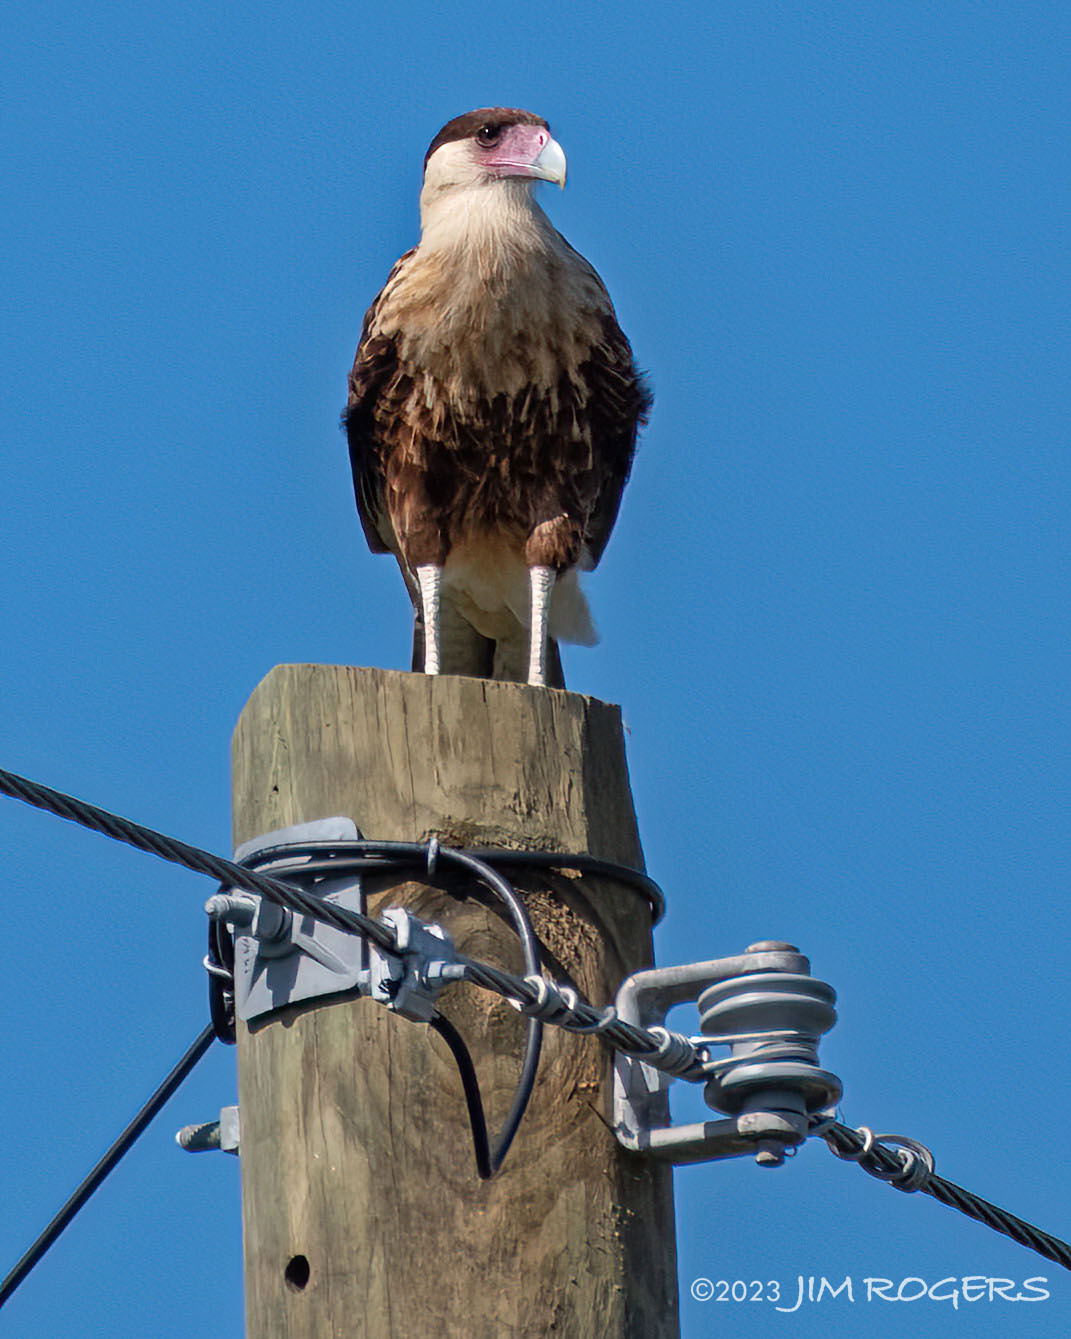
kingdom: Animalia
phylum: Chordata
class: Aves
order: Falconiformes
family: Falconidae
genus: Caracara
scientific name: Caracara plancus
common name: Southern caracara
